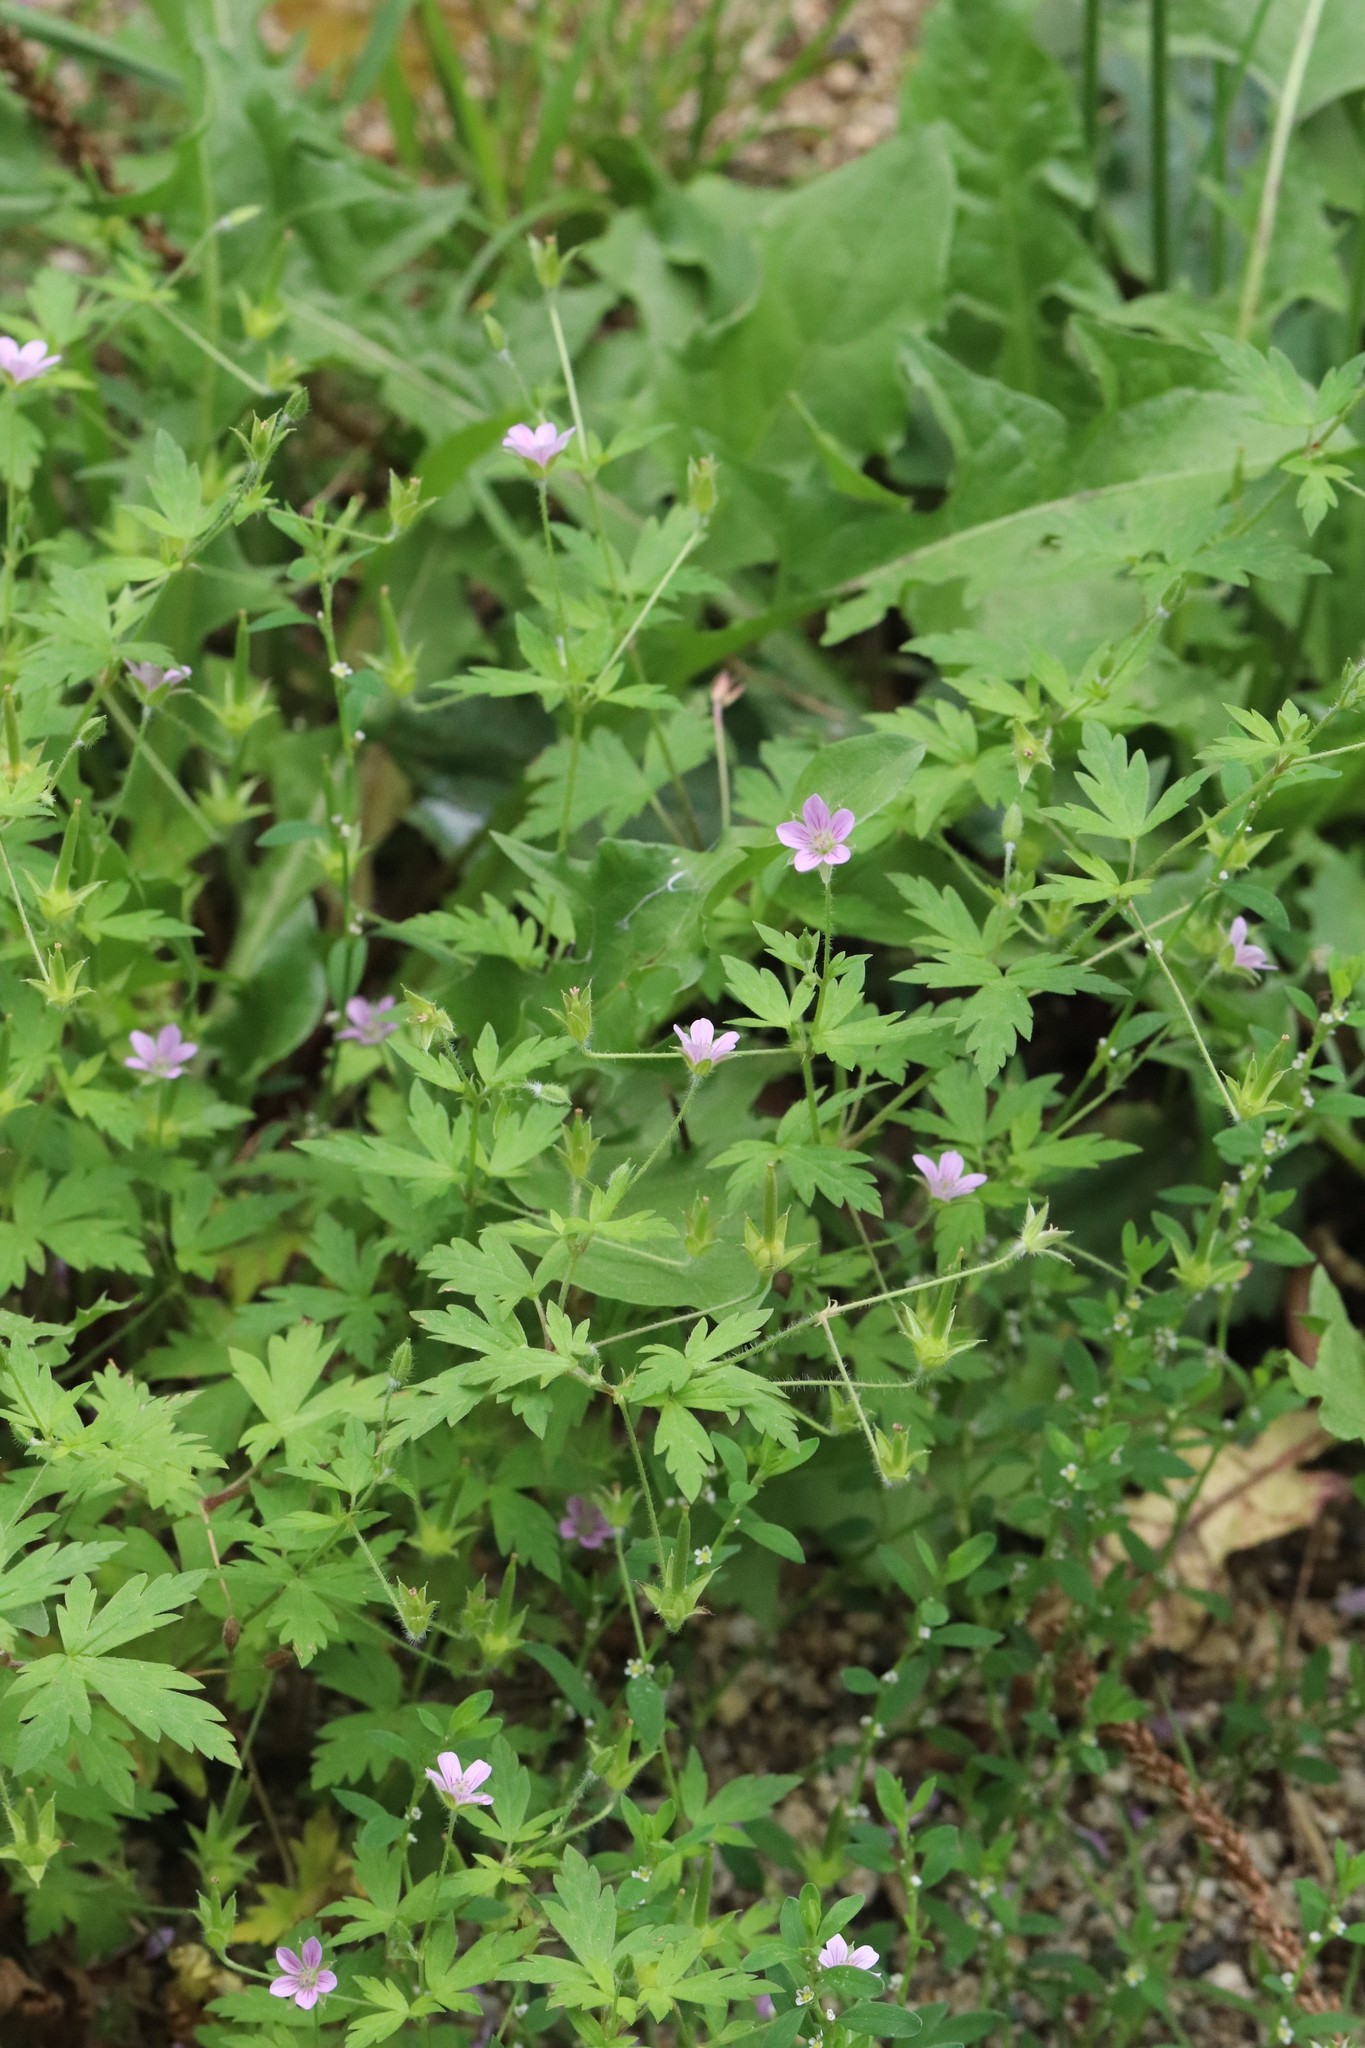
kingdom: Plantae
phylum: Tracheophyta
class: Magnoliopsida
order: Geraniales
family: Geraniaceae
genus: Geranium
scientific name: Geranium sibiricum
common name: Siberian crane's-bill
